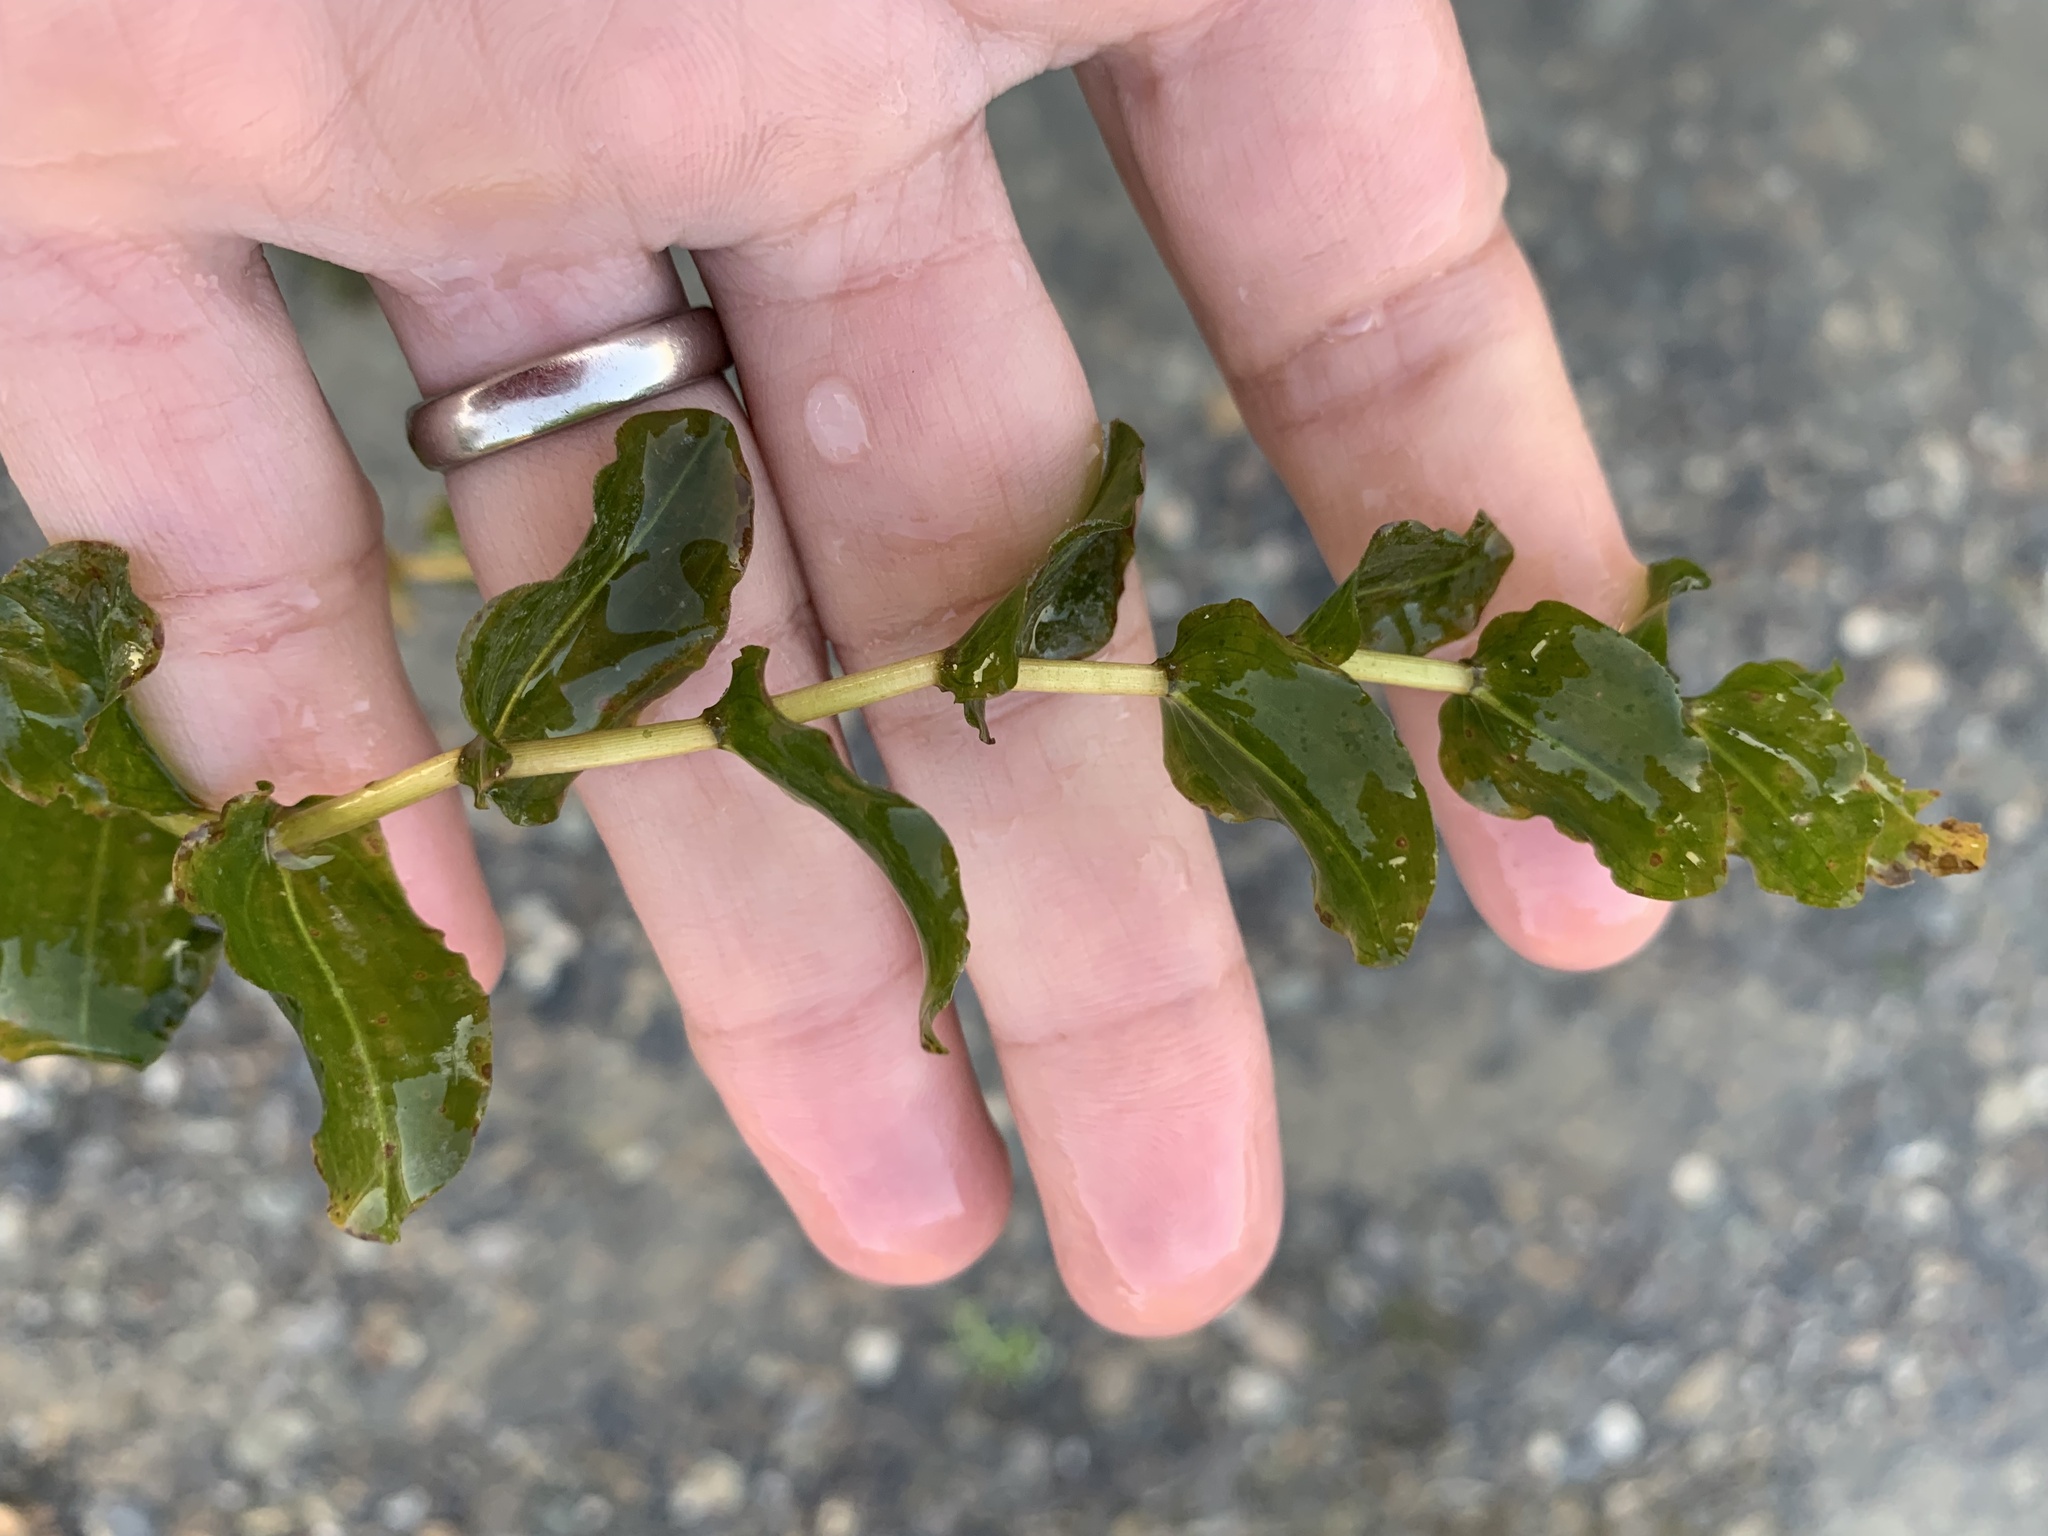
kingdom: Plantae
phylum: Tracheophyta
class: Liliopsida
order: Alismatales
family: Potamogetonaceae
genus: Potamogeton
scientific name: Potamogeton perfoliatus
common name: Perfoliate pondweed
